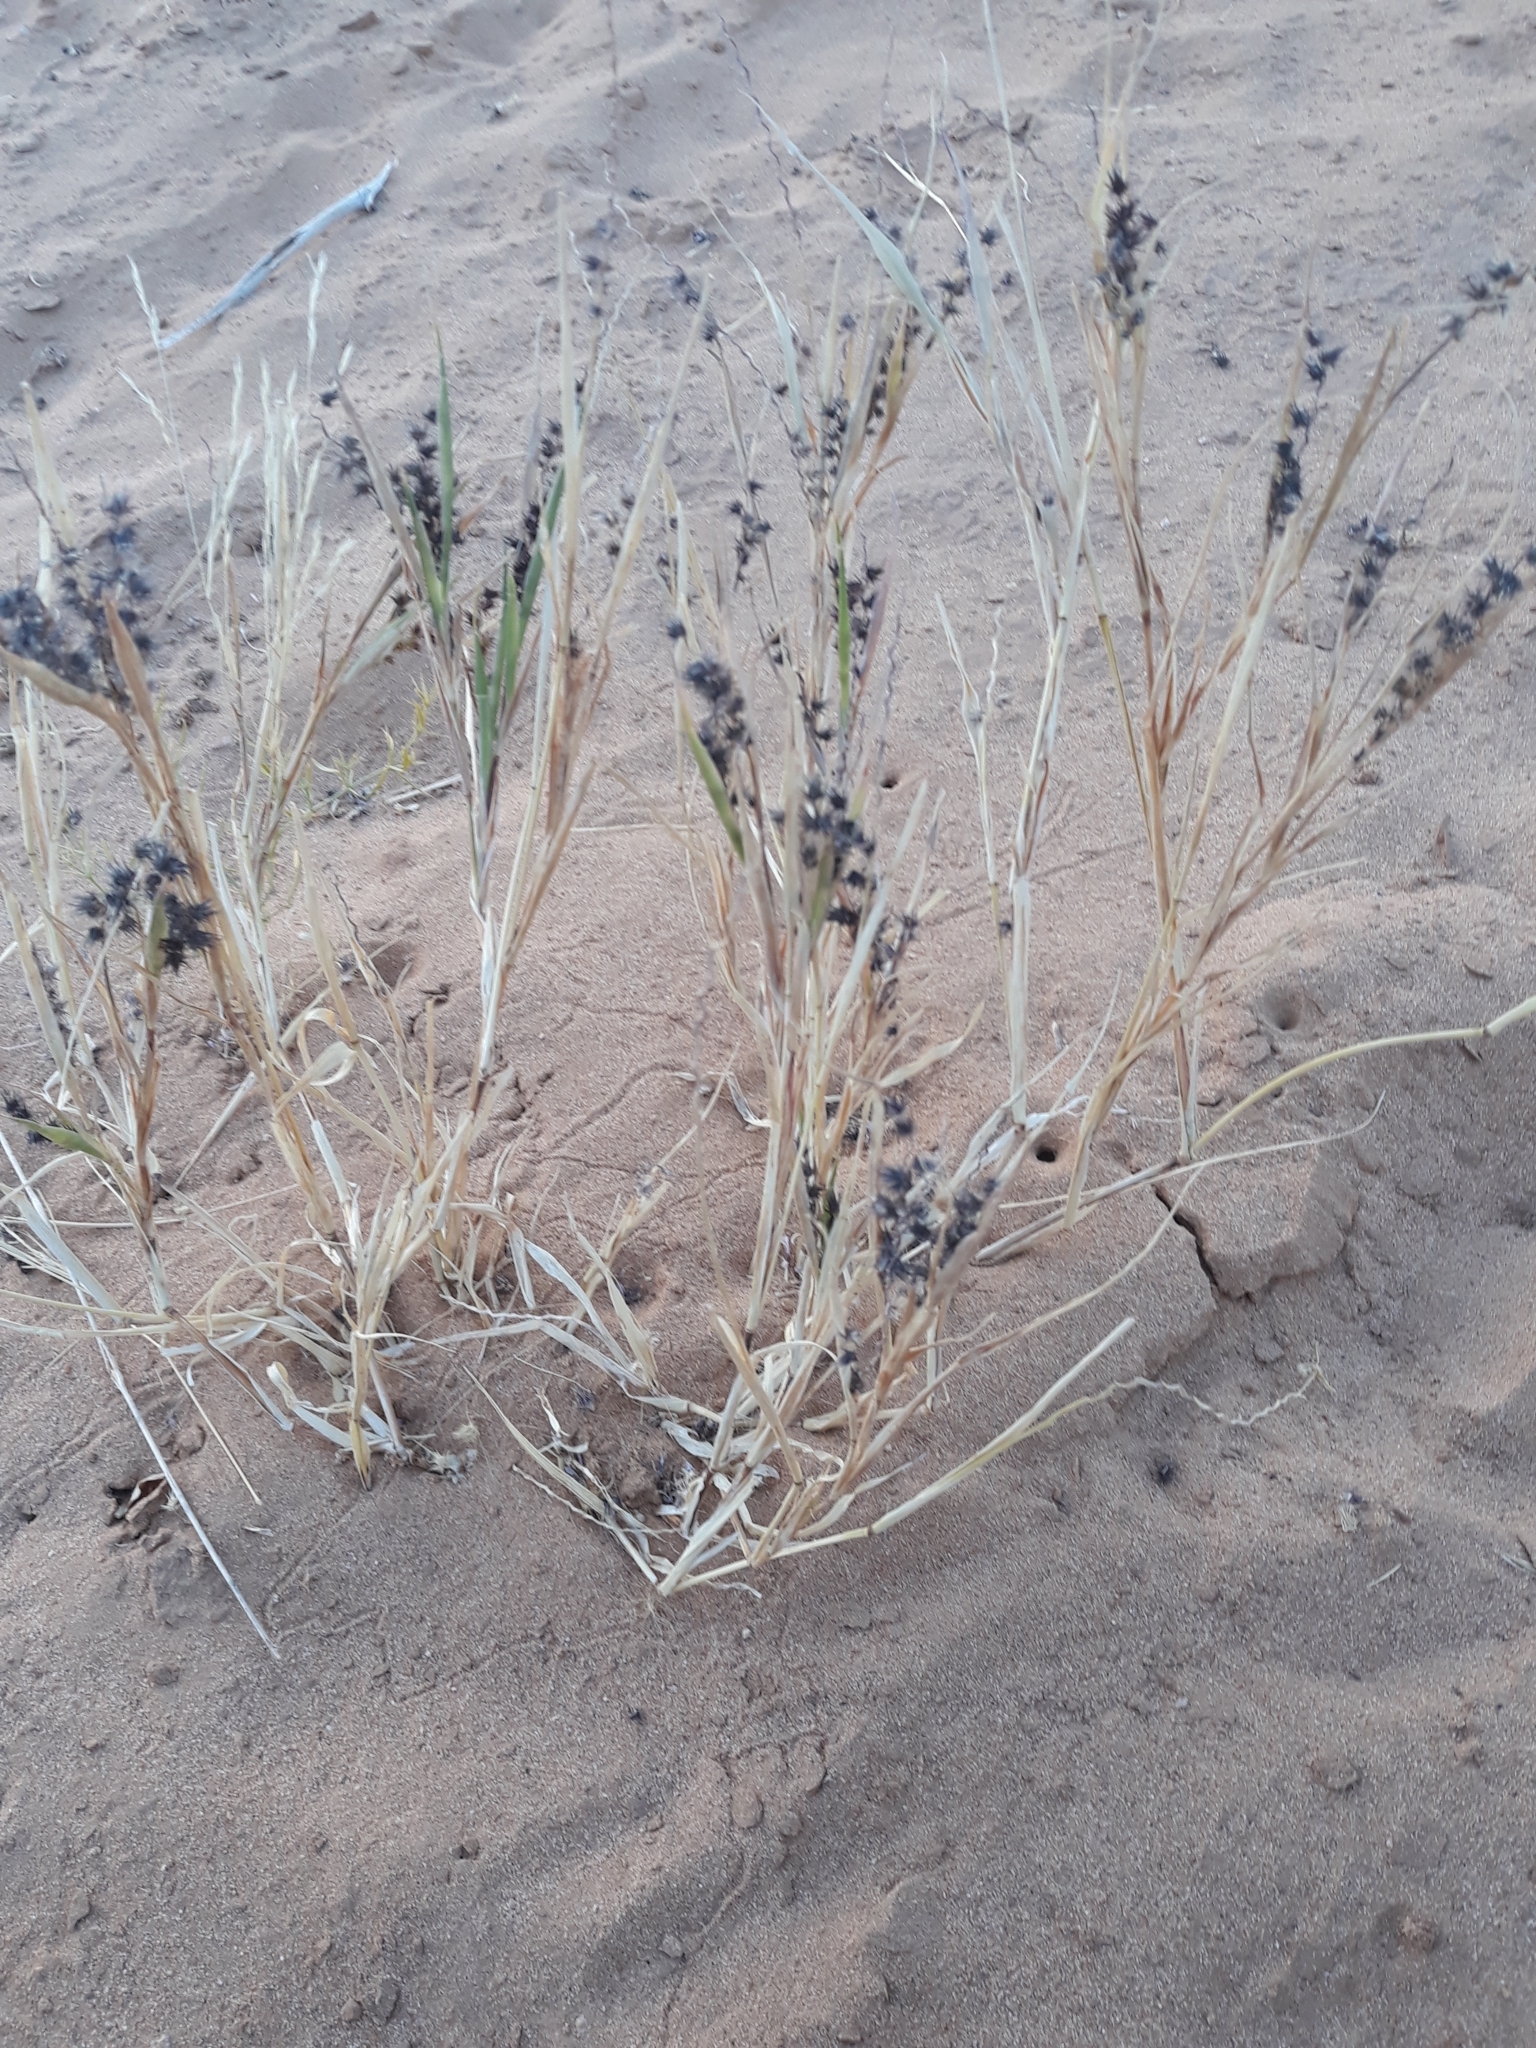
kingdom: Plantae
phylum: Tracheophyta
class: Liliopsida
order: Poales
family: Poaceae
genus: Cenchrus
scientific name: Cenchrus biflorus
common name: Indian sandbur
